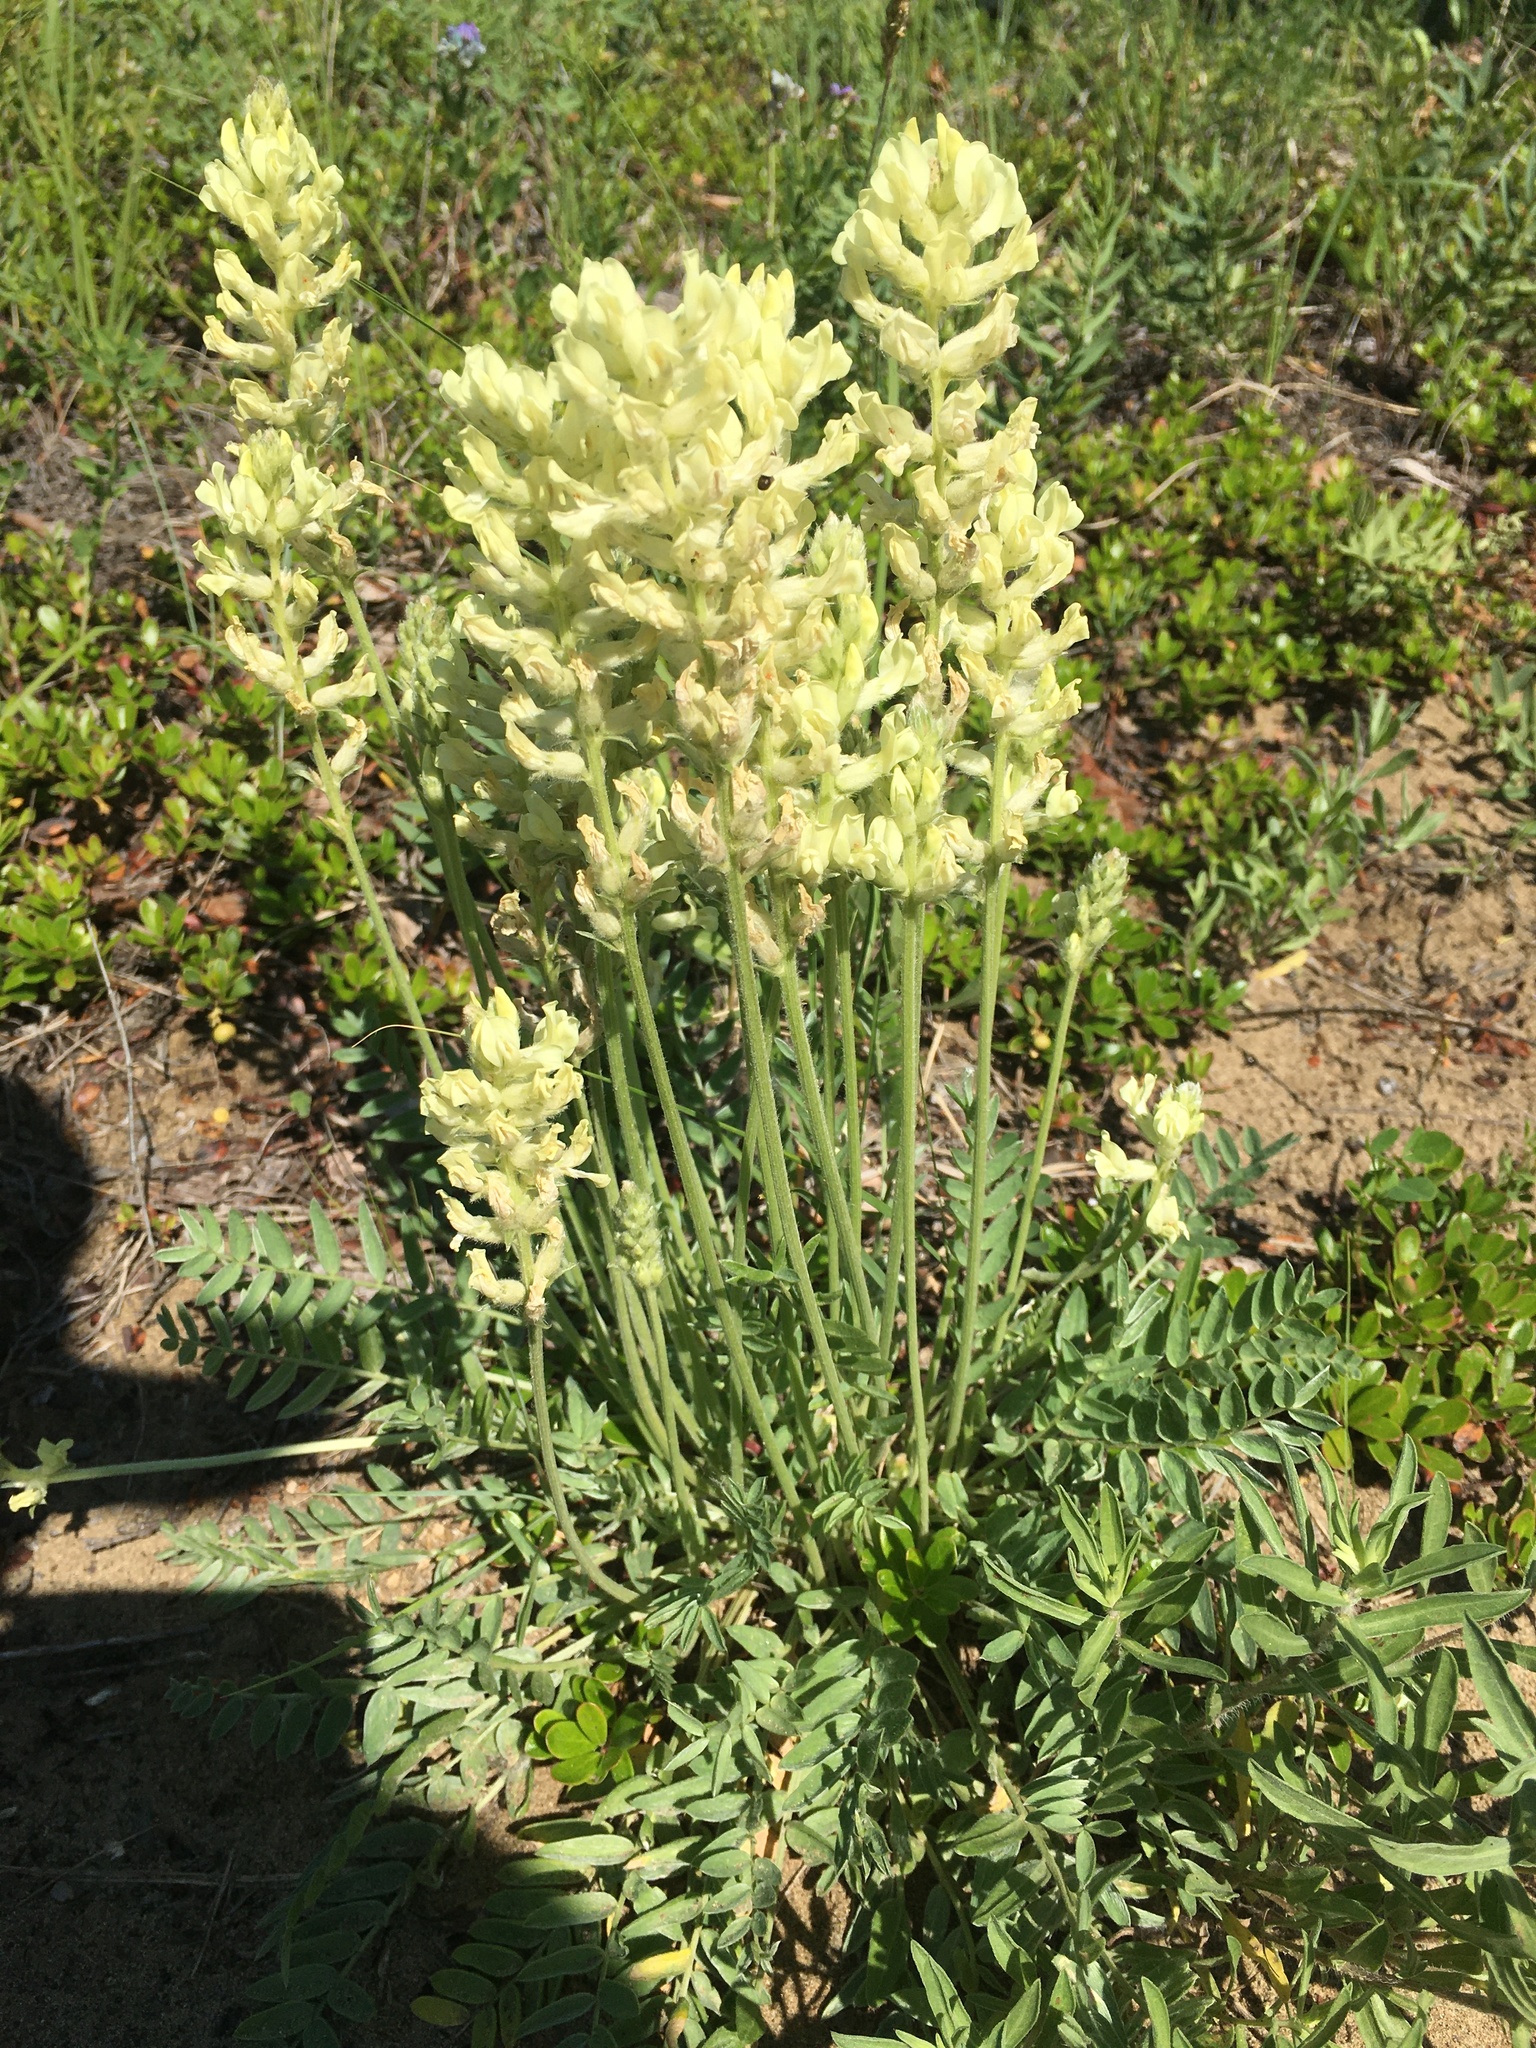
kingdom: Plantae
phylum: Tracheophyta
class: Magnoliopsida
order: Fabales
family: Fabaceae
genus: Oxytropis
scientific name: Oxytropis campestris
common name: Field locoweed
